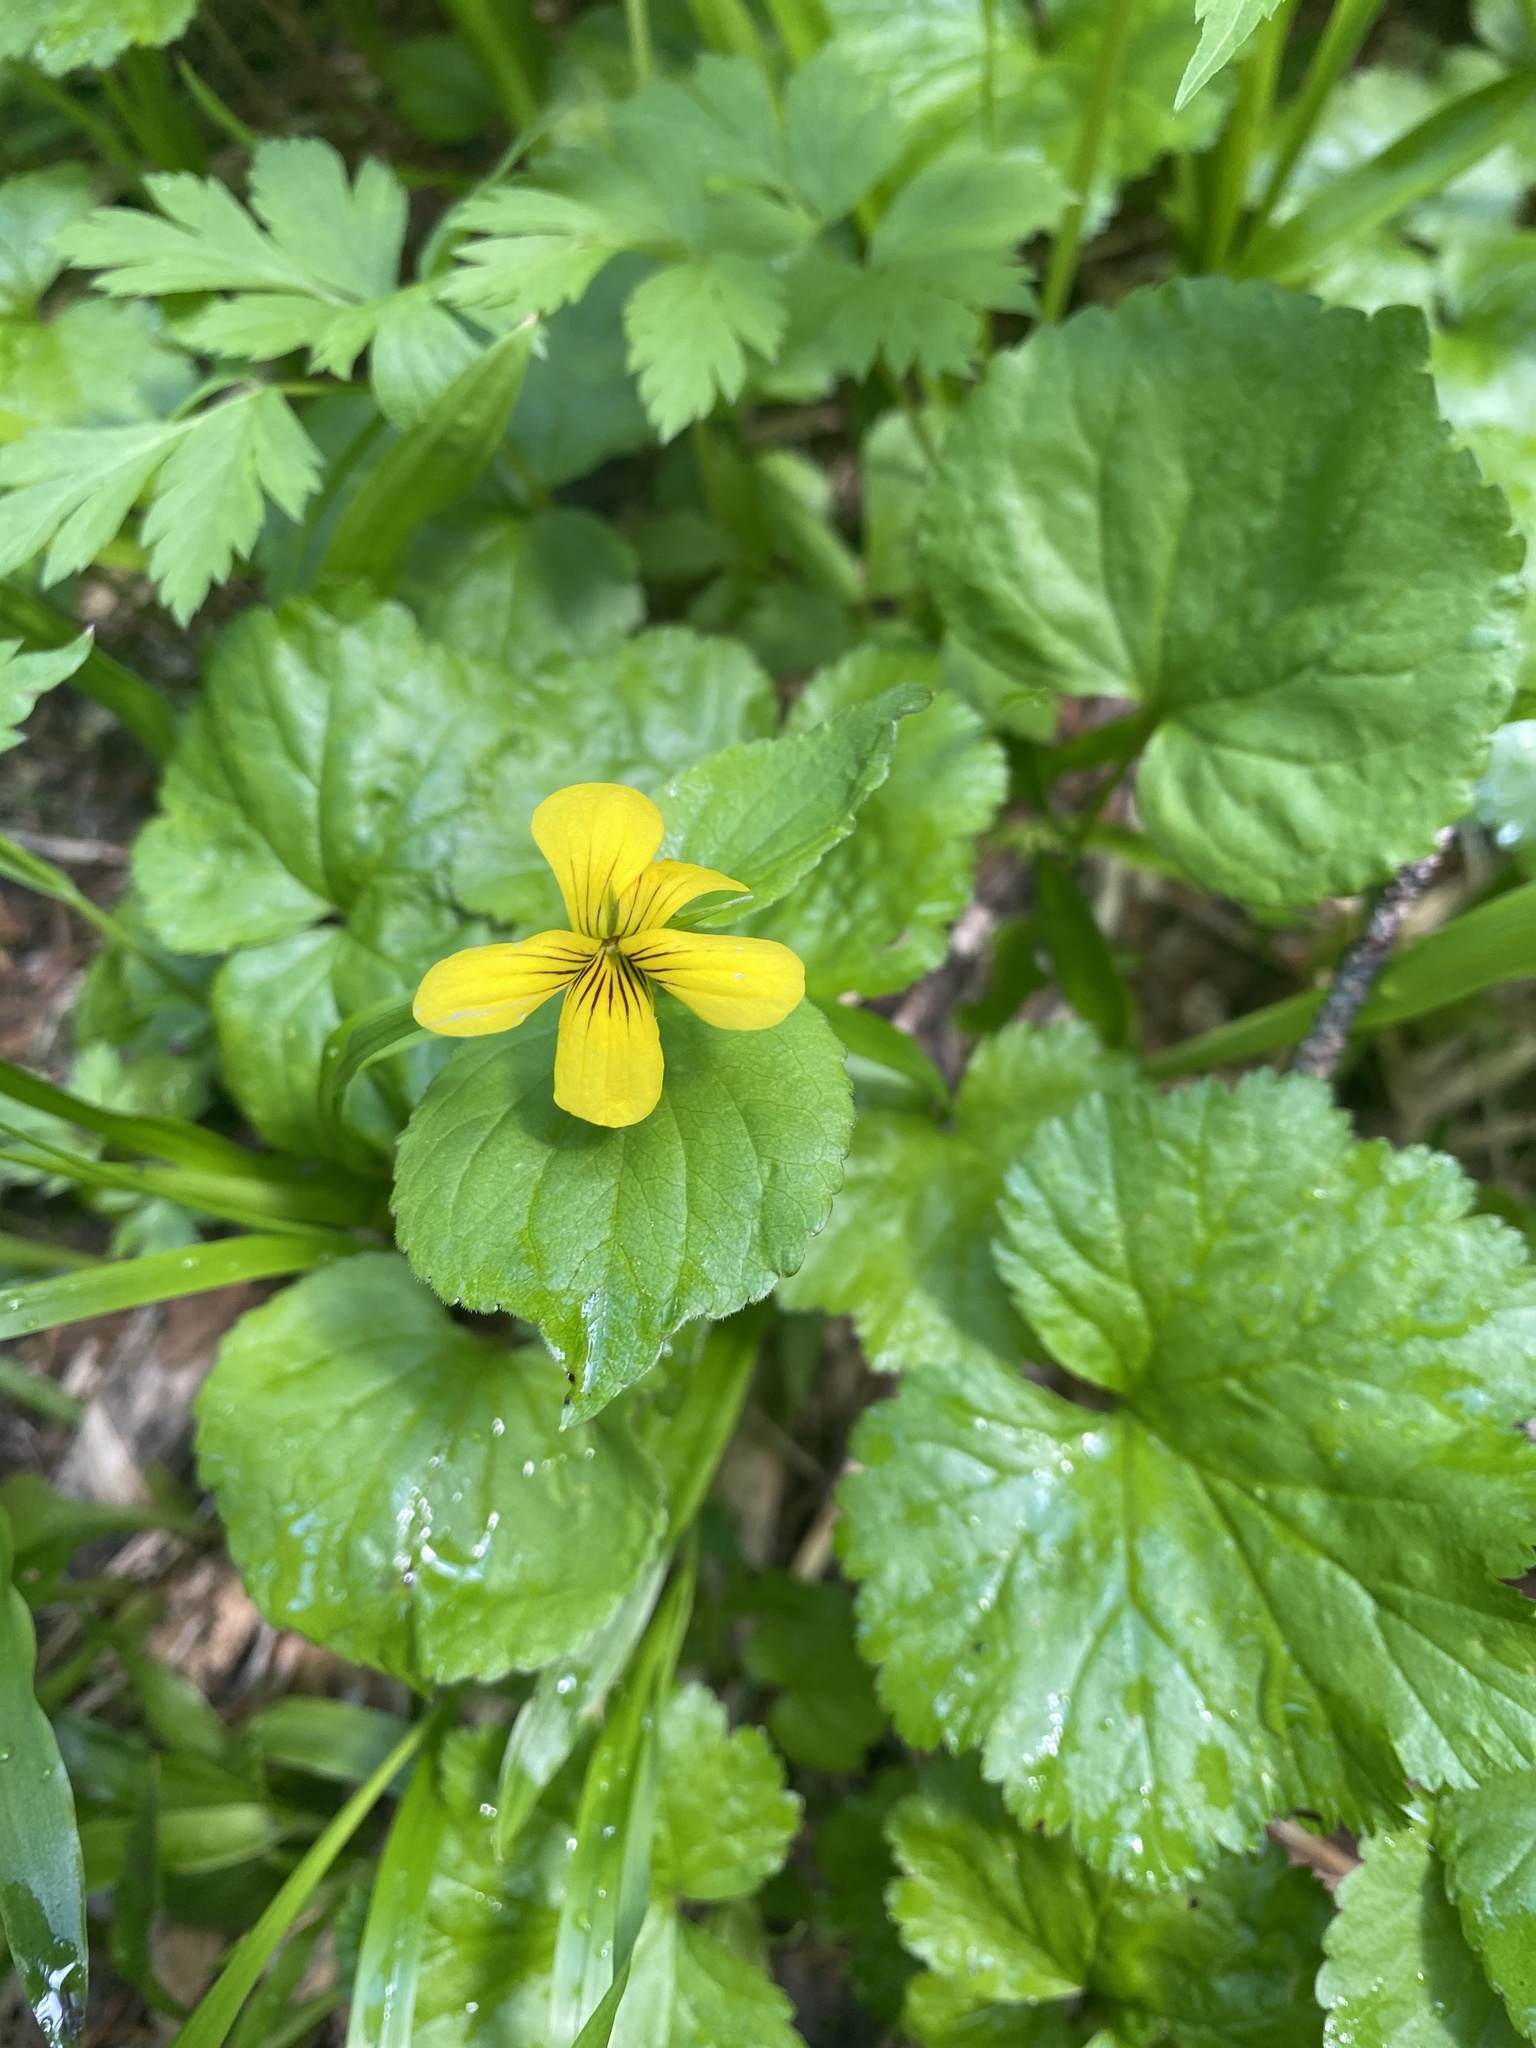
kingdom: Plantae
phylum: Tracheophyta
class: Magnoliopsida
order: Malpighiales
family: Violaceae
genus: Viola
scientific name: Viola glabella
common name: Stream violet
